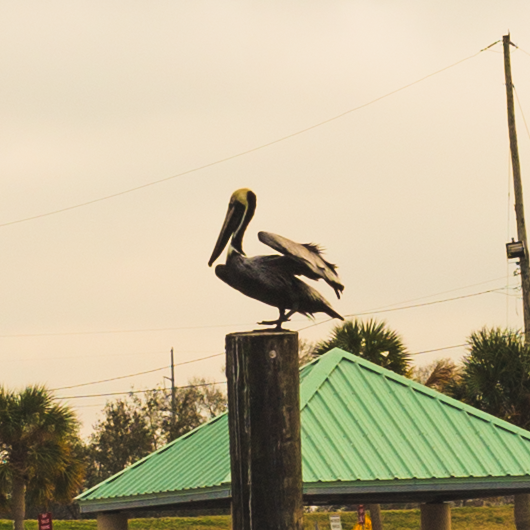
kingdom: Animalia
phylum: Chordata
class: Aves
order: Pelecaniformes
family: Pelecanidae
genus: Pelecanus
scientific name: Pelecanus occidentalis
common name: Brown pelican
